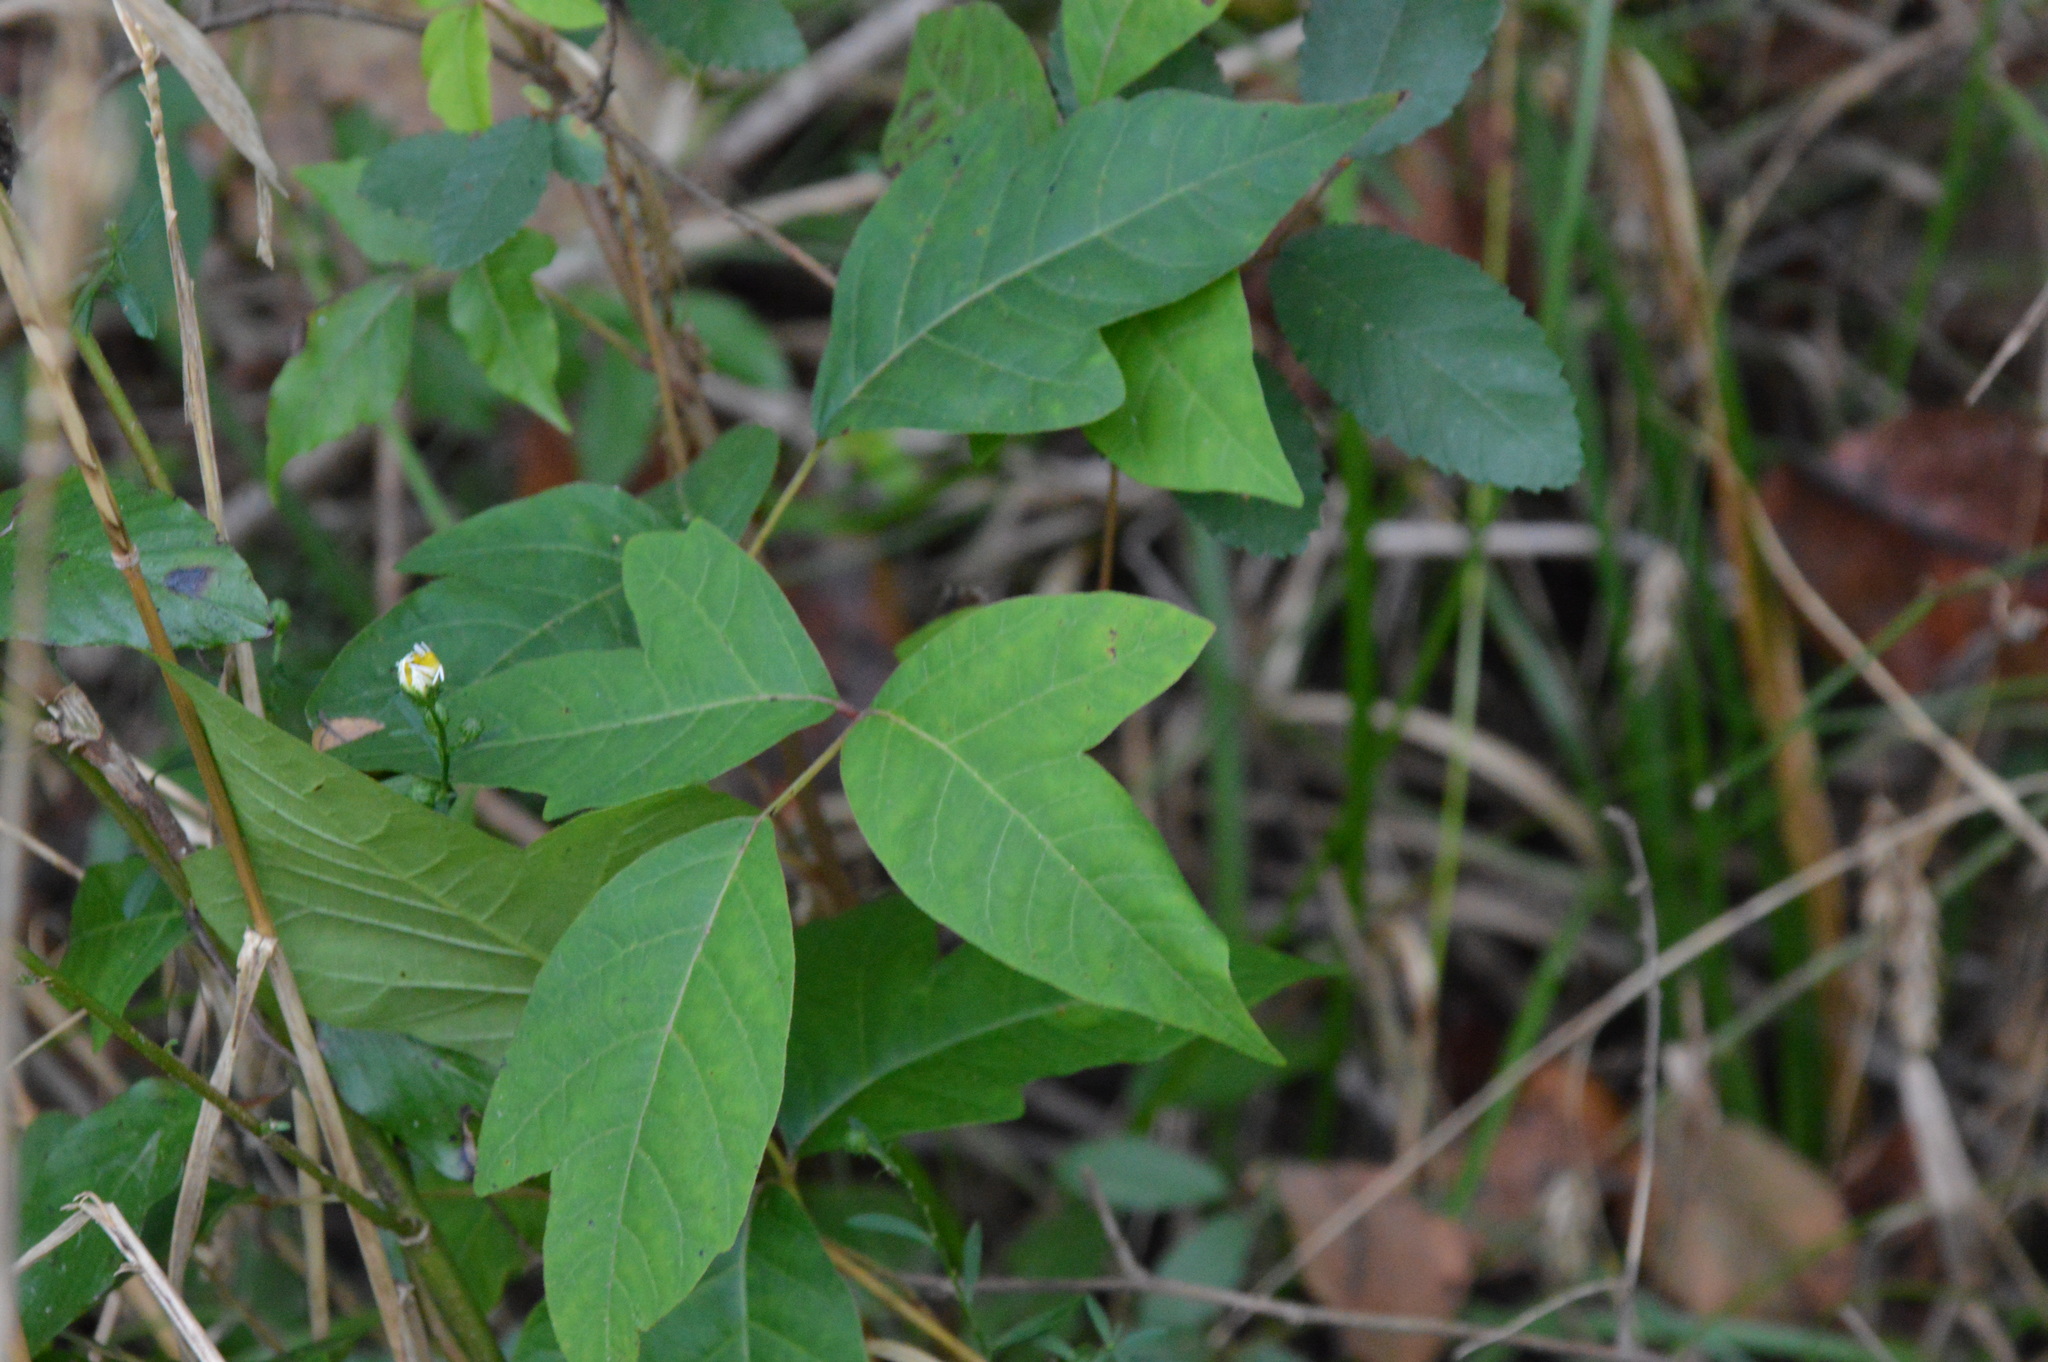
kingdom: Plantae
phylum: Tracheophyta
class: Magnoliopsida
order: Sapindales
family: Anacardiaceae
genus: Toxicodendron
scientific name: Toxicodendron radicans
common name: Poison ivy
